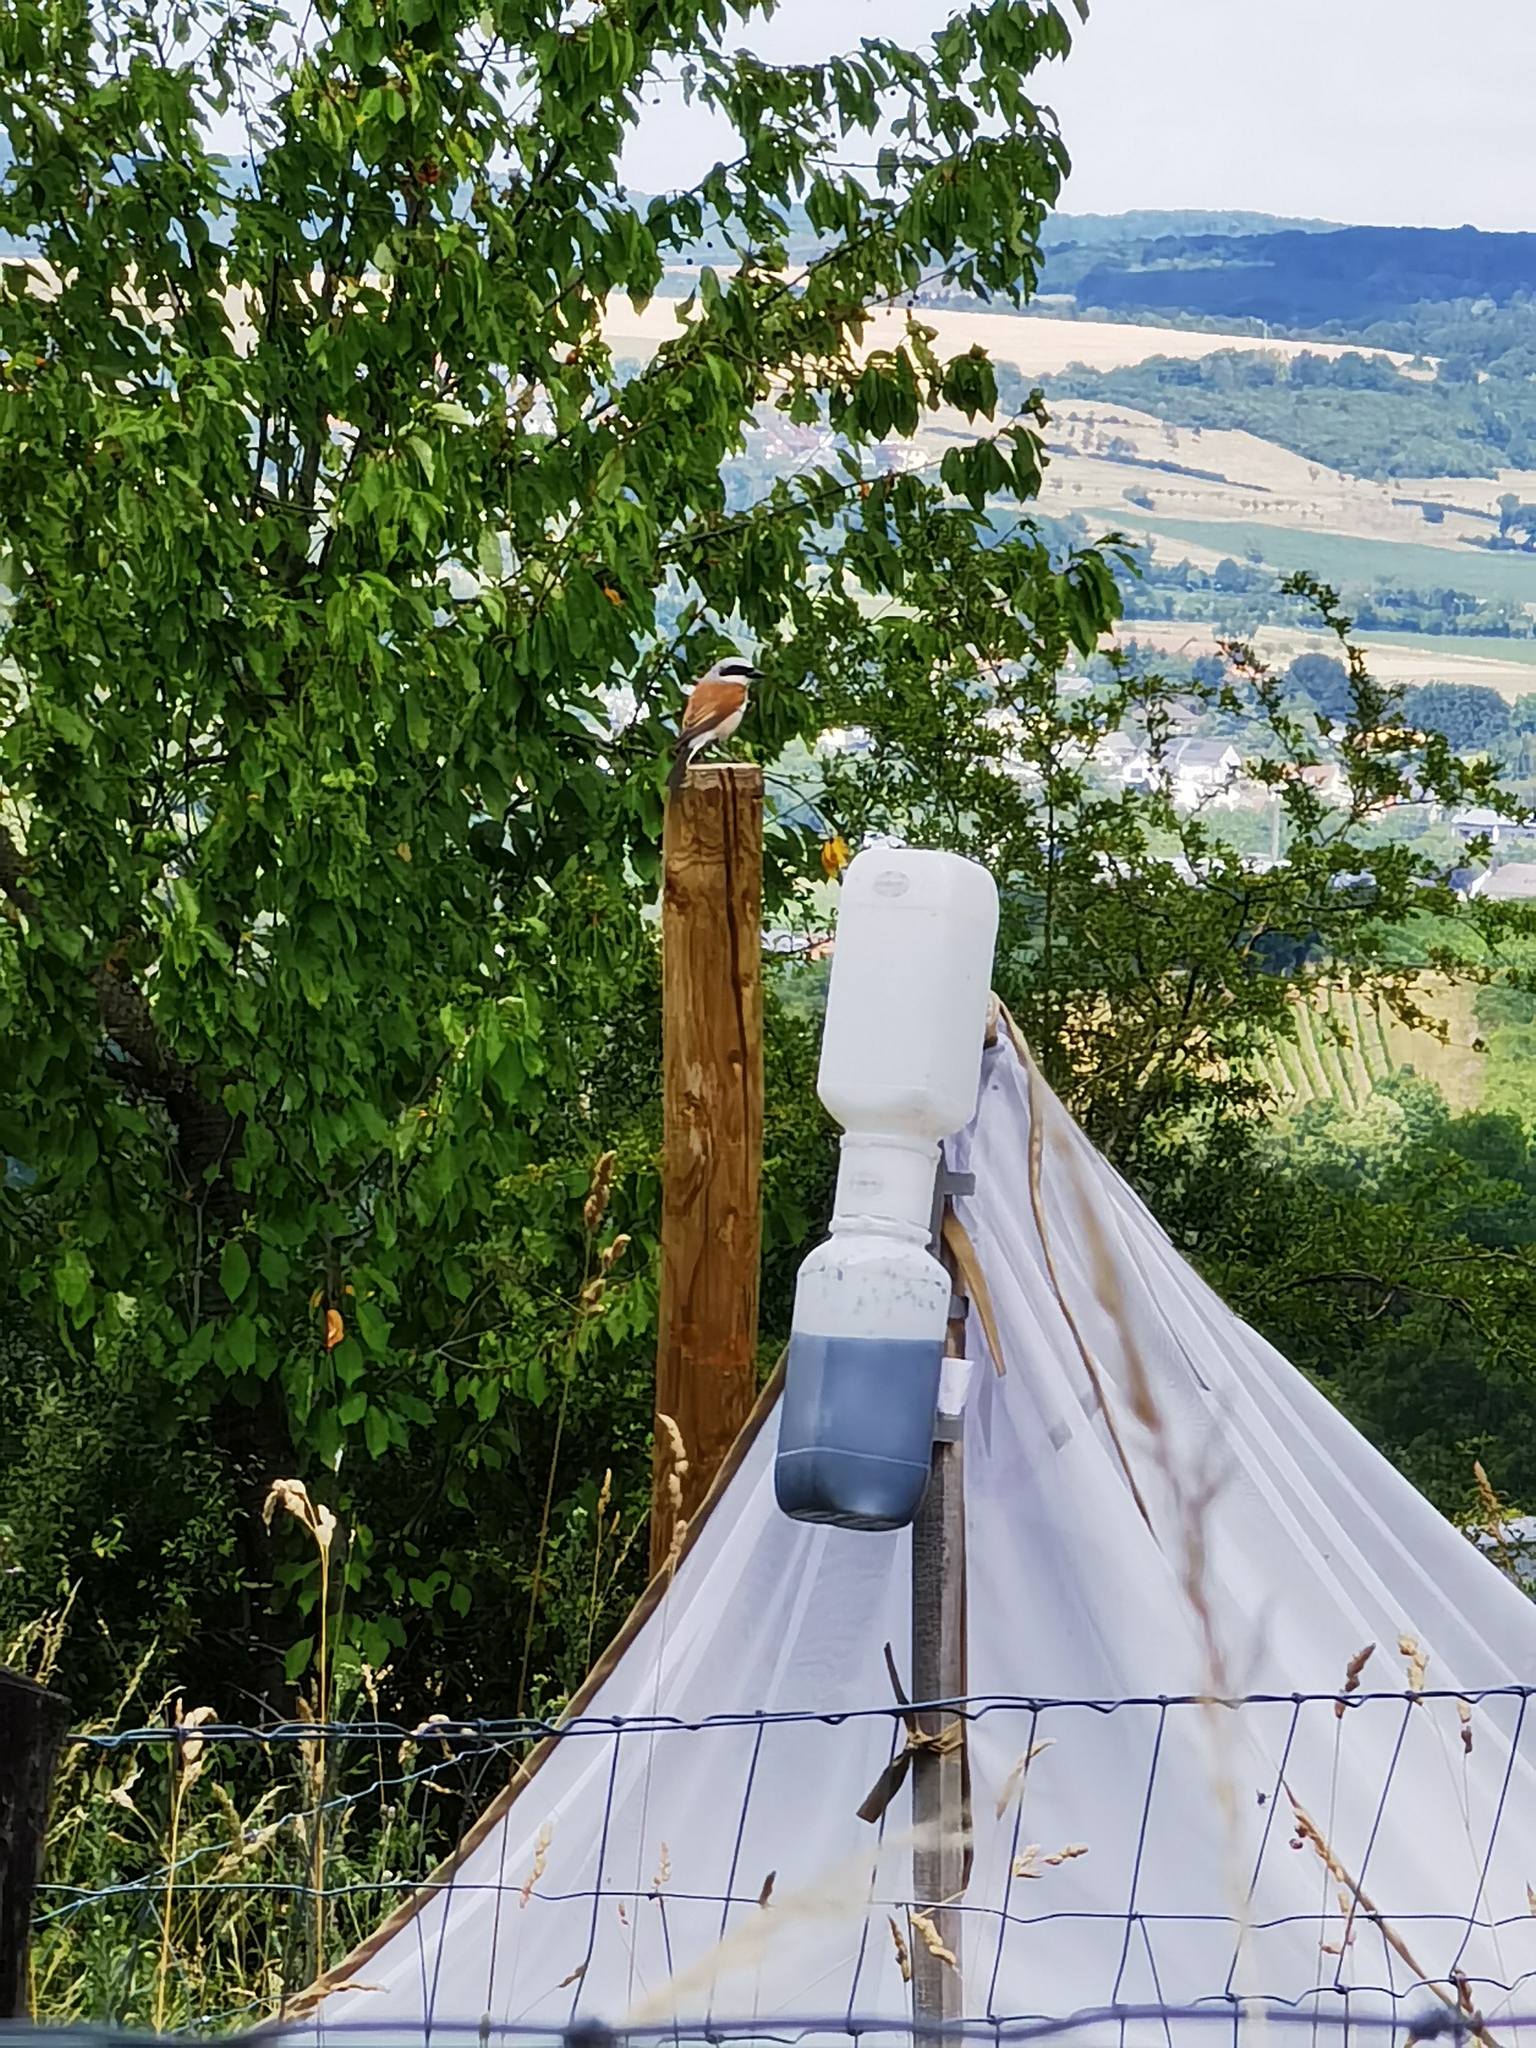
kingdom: Animalia
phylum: Chordata
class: Aves
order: Passeriformes
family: Laniidae
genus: Lanius
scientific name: Lanius collurio
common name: Red-backed shrike
